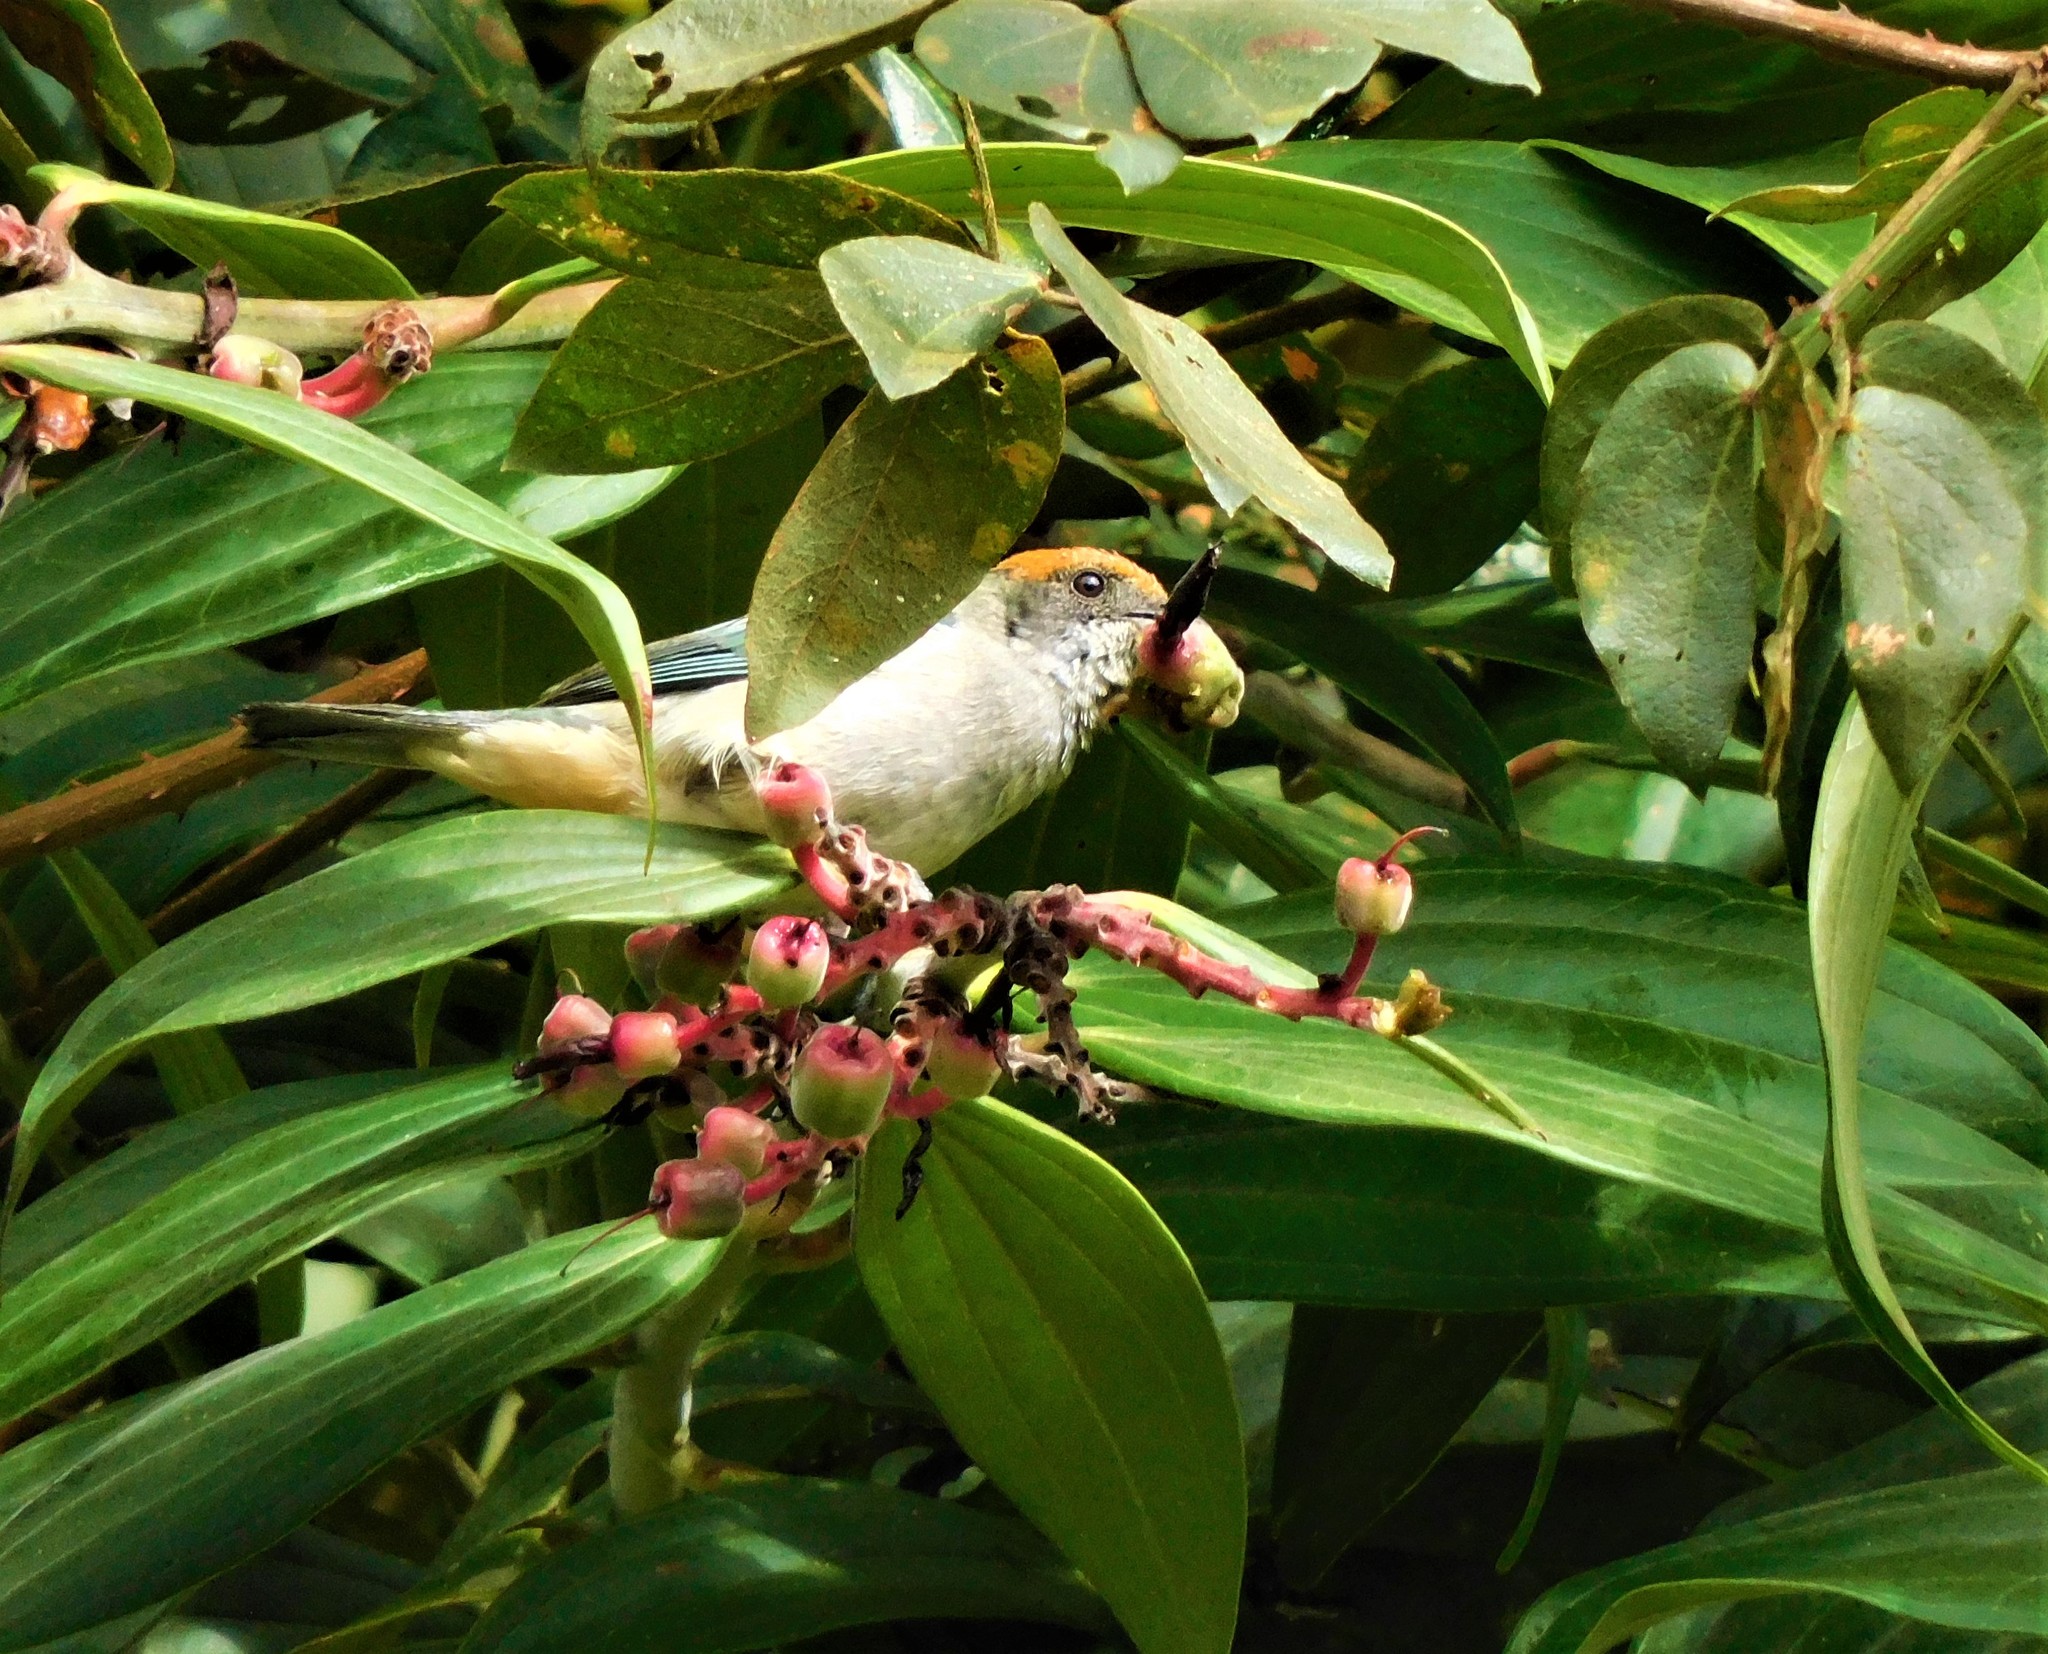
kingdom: Animalia
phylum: Chordata
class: Aves
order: Passeriformes
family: Thraupidae
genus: Stilpnia
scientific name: Stilpnia vitriolina
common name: Scrub tanager
